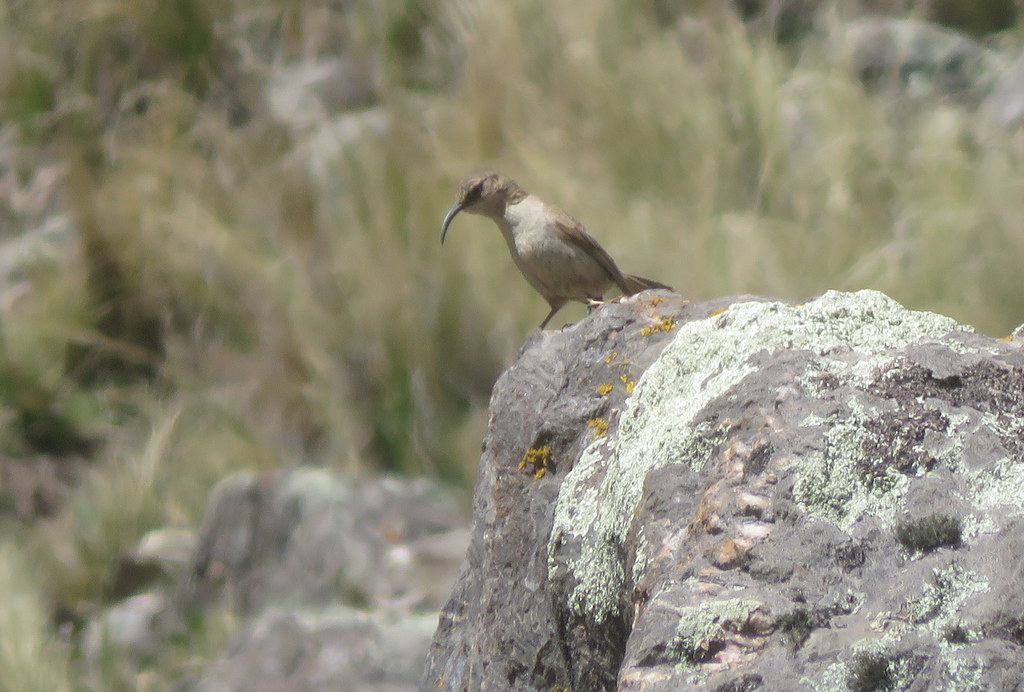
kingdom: Animalia
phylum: Chordata
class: Aves
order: Passeriformes
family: Furnariidae
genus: Upucerthia
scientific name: Upucerthia validirostris
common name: Buff-breasted earthcreeper
